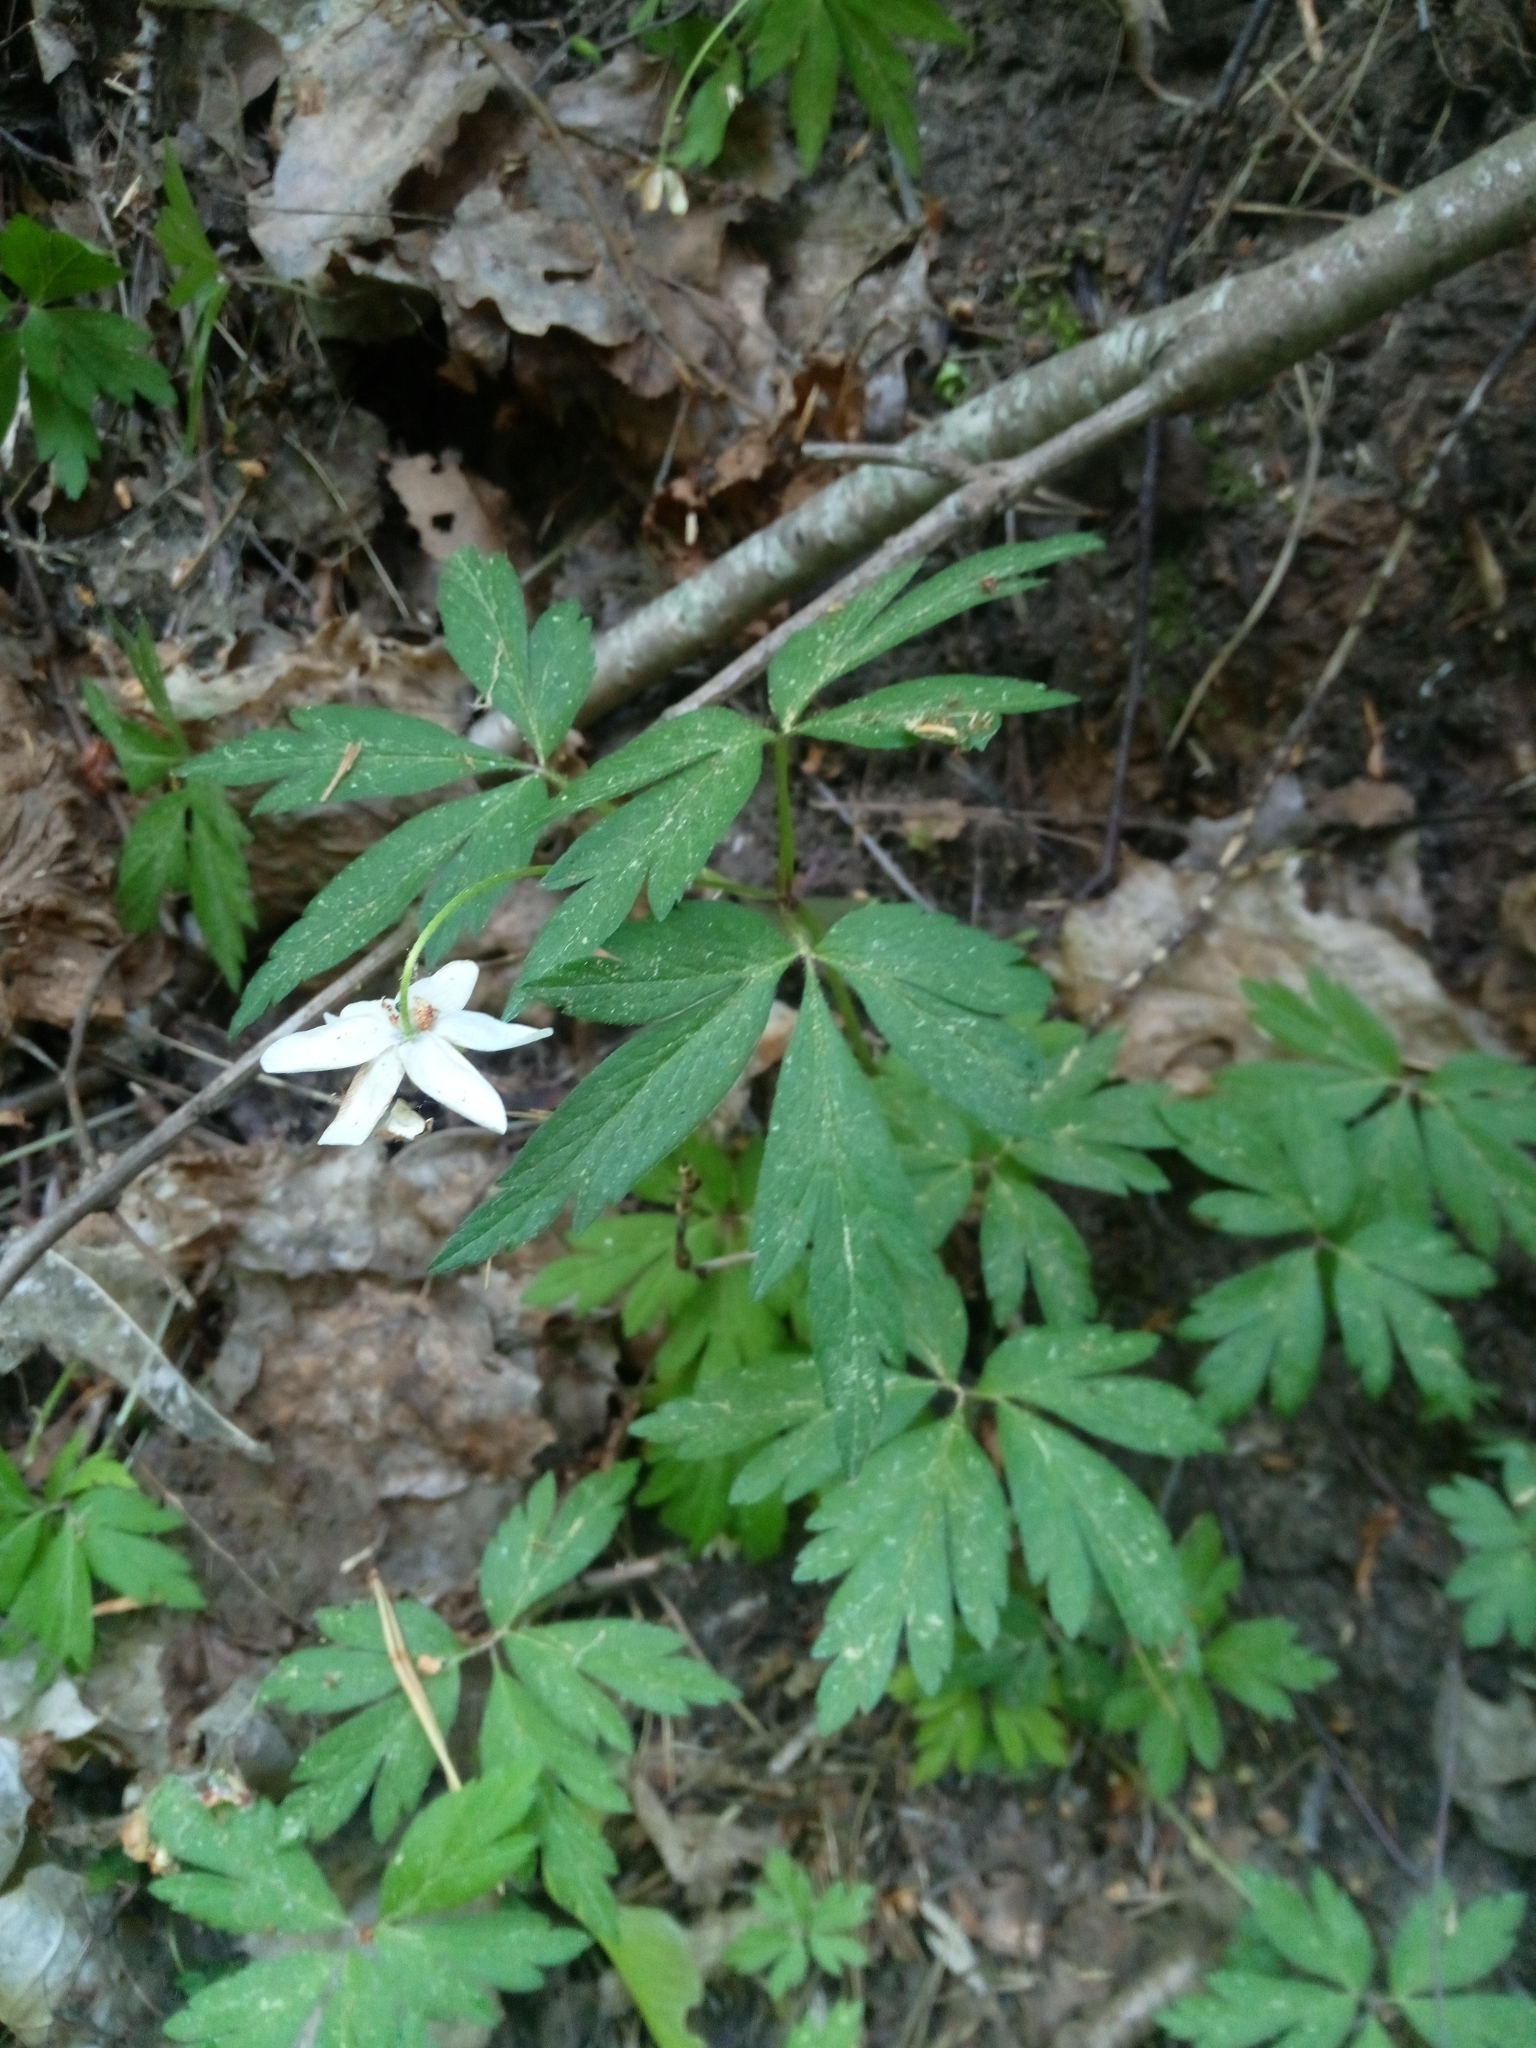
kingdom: Plantae
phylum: Tracheophyta
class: Magnoliopsida
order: Ranunculales
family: Ranunculaceae
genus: Anemone
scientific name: Anemone nemorosa
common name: Wood anemone
